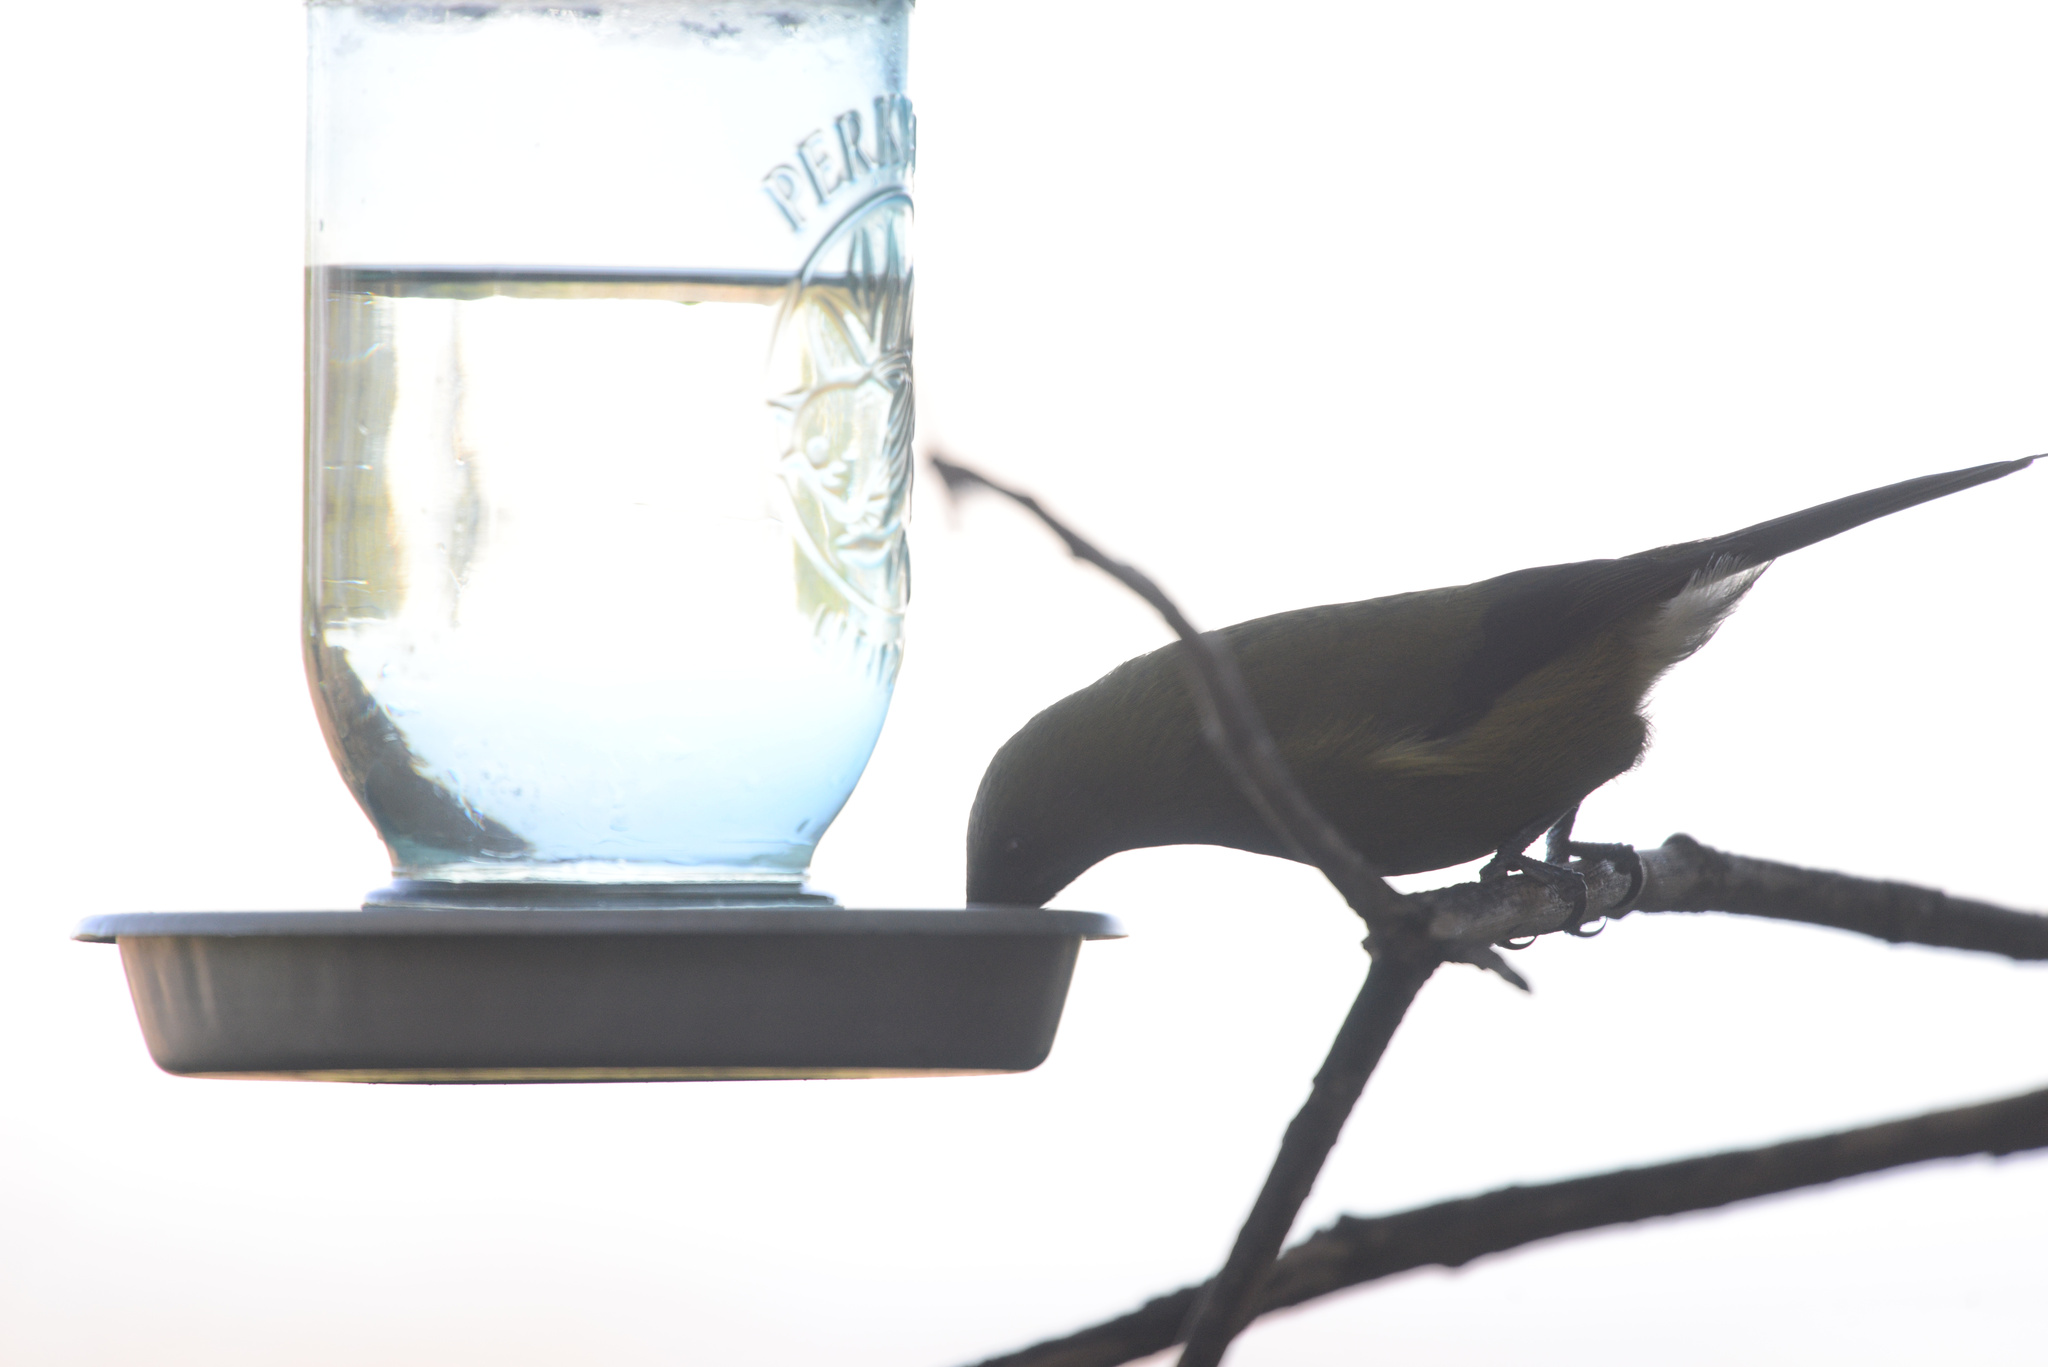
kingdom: Animalia
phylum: Chordata
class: Aves
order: Passeriformes
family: Meliphagidae
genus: Anthornis
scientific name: Anthornis melanura
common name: New zealand bellbird
